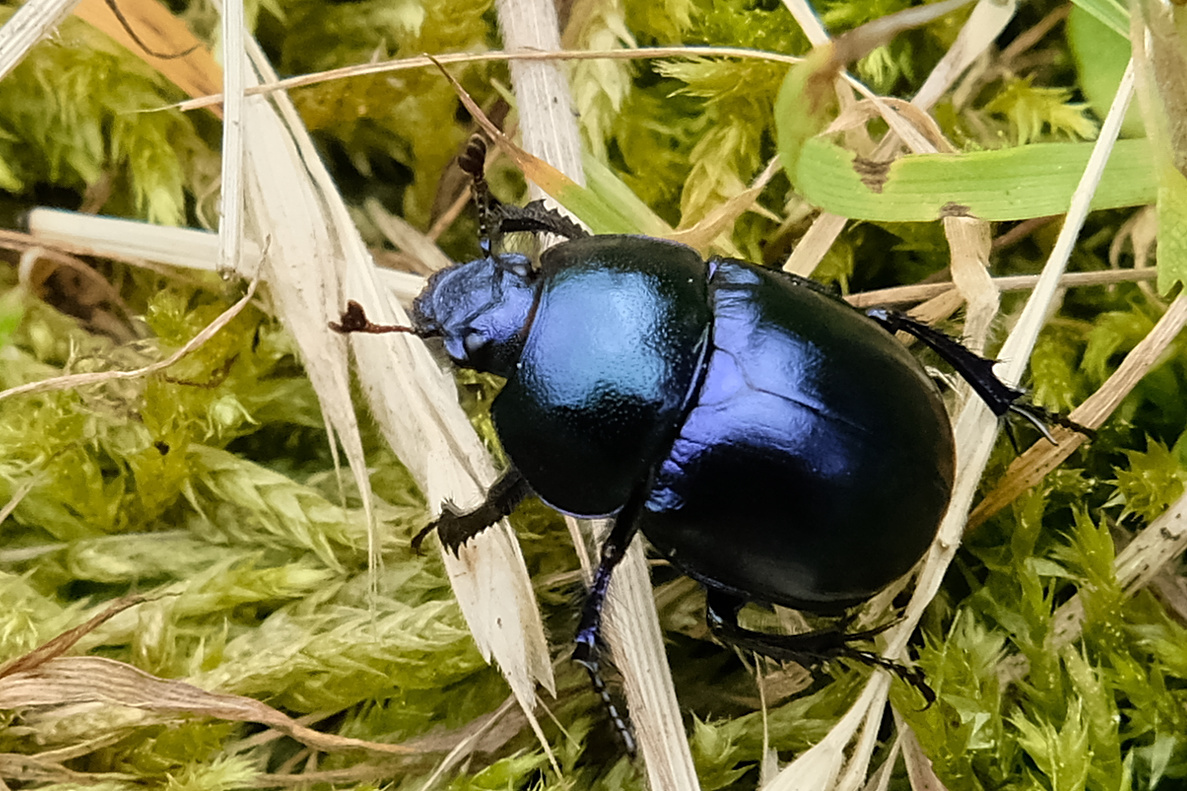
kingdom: Animalia
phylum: Arthropoda
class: Insecta
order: Coleoptera
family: Geotrupidae
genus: Trypocopris
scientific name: Trypocopris vernalis
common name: Spring dumbledor
